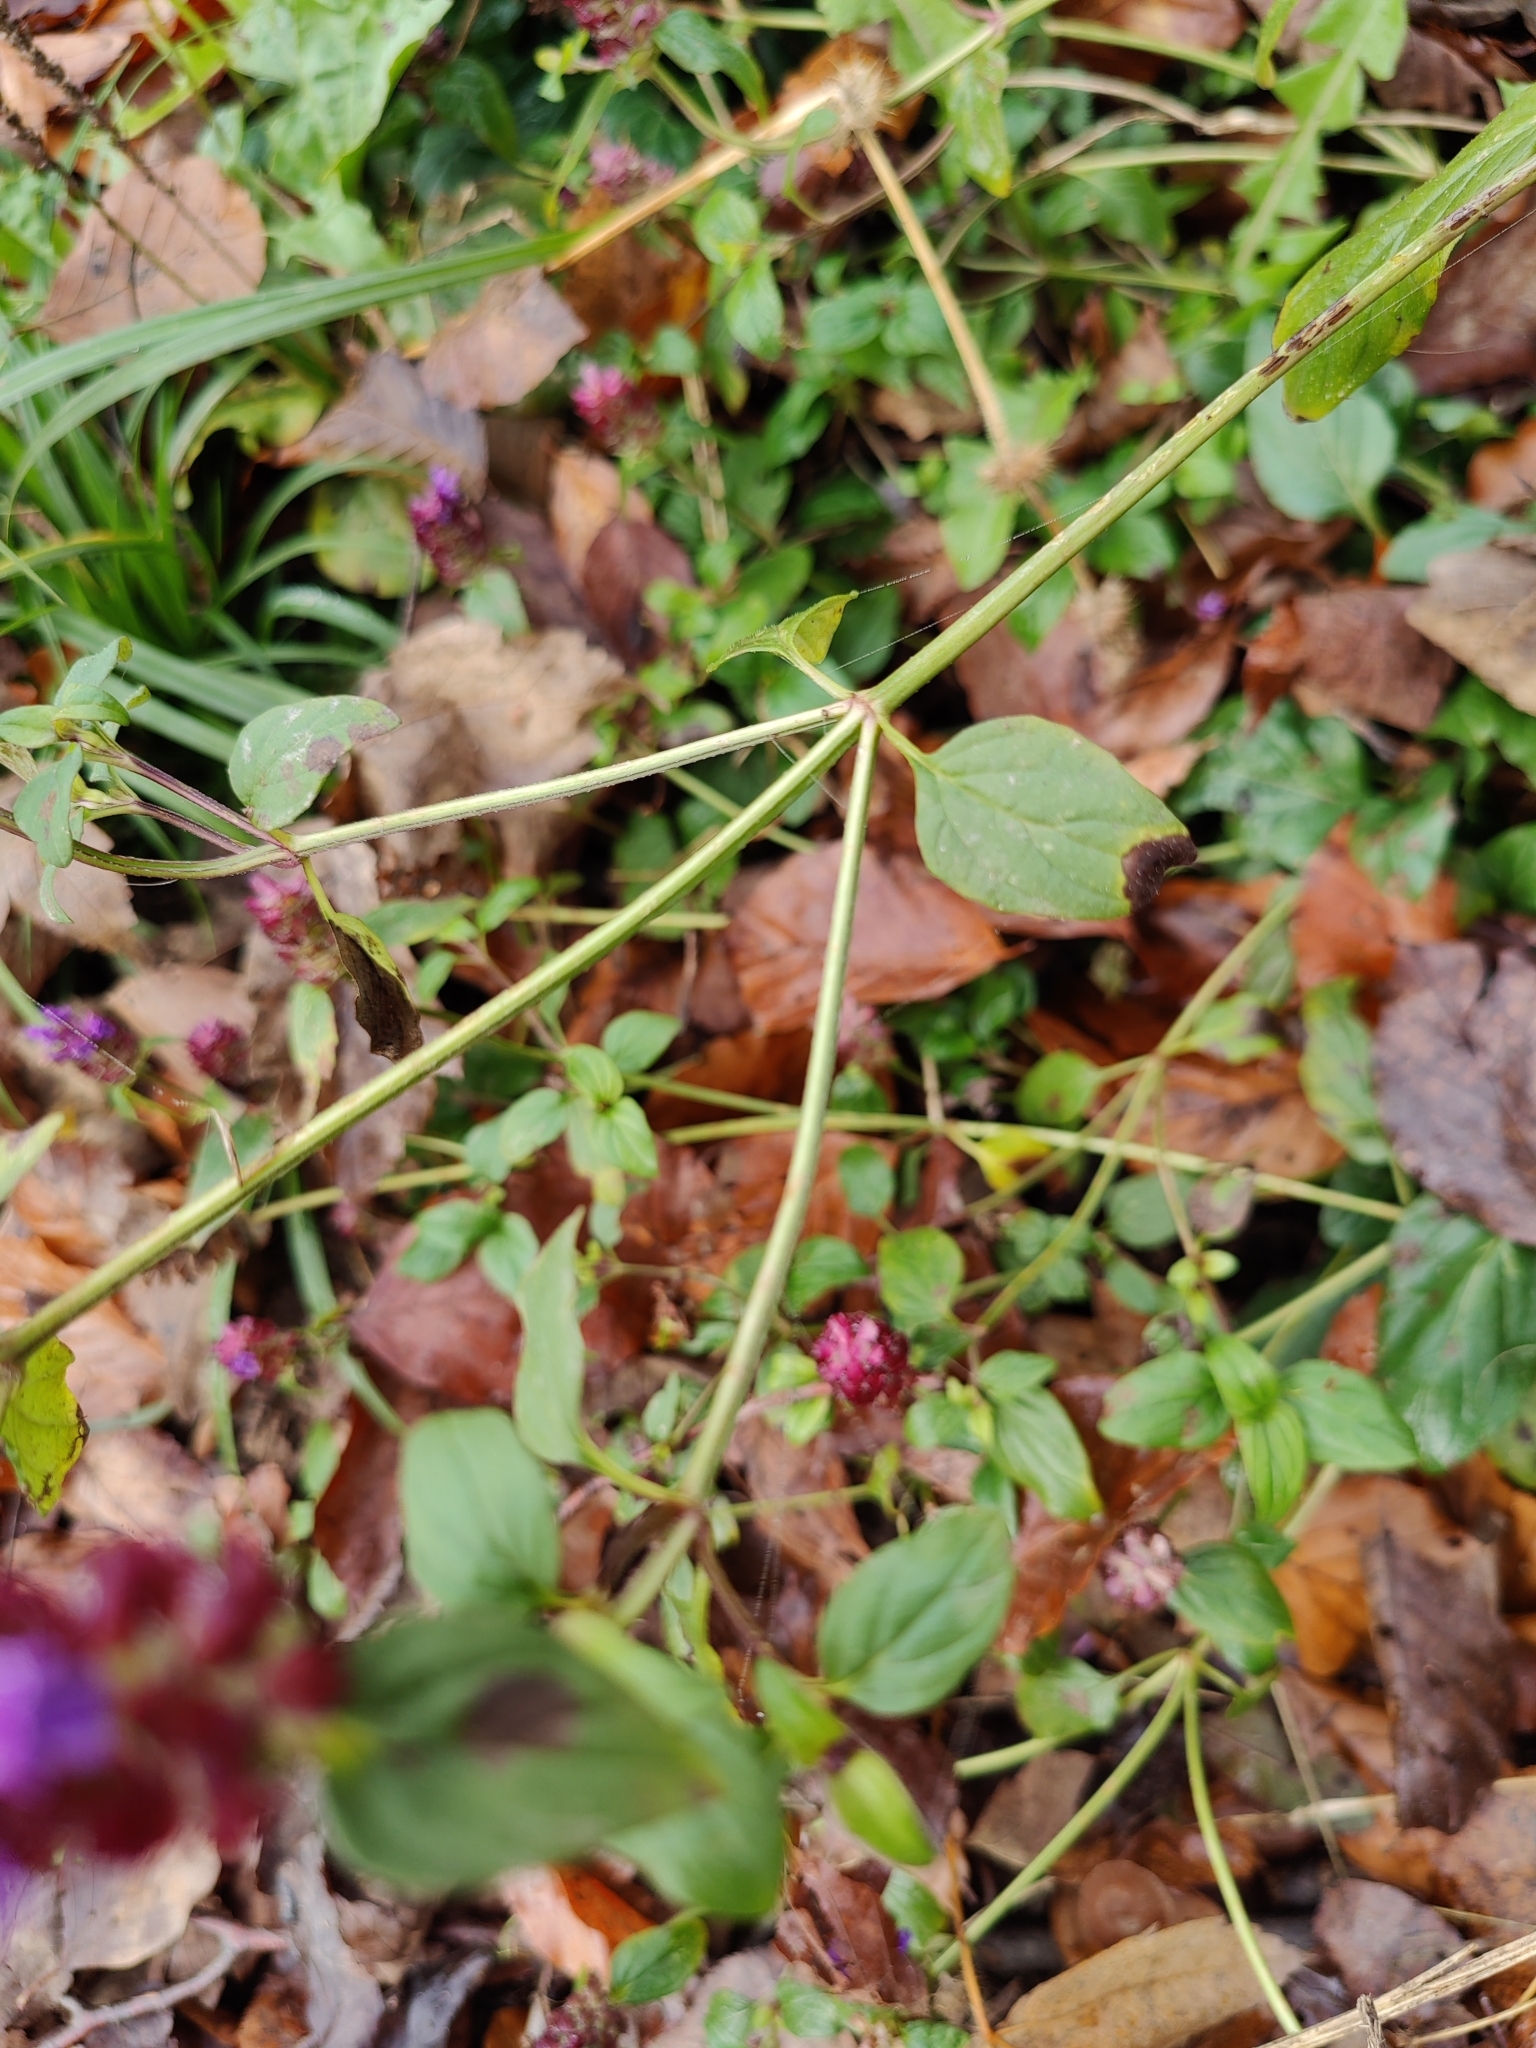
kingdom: Plantae
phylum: Tracheophyta
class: Magnoliopsida
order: Lamiales
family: Lamiaceae
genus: Prunella
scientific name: Prunella vulgaris
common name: Heal-all
